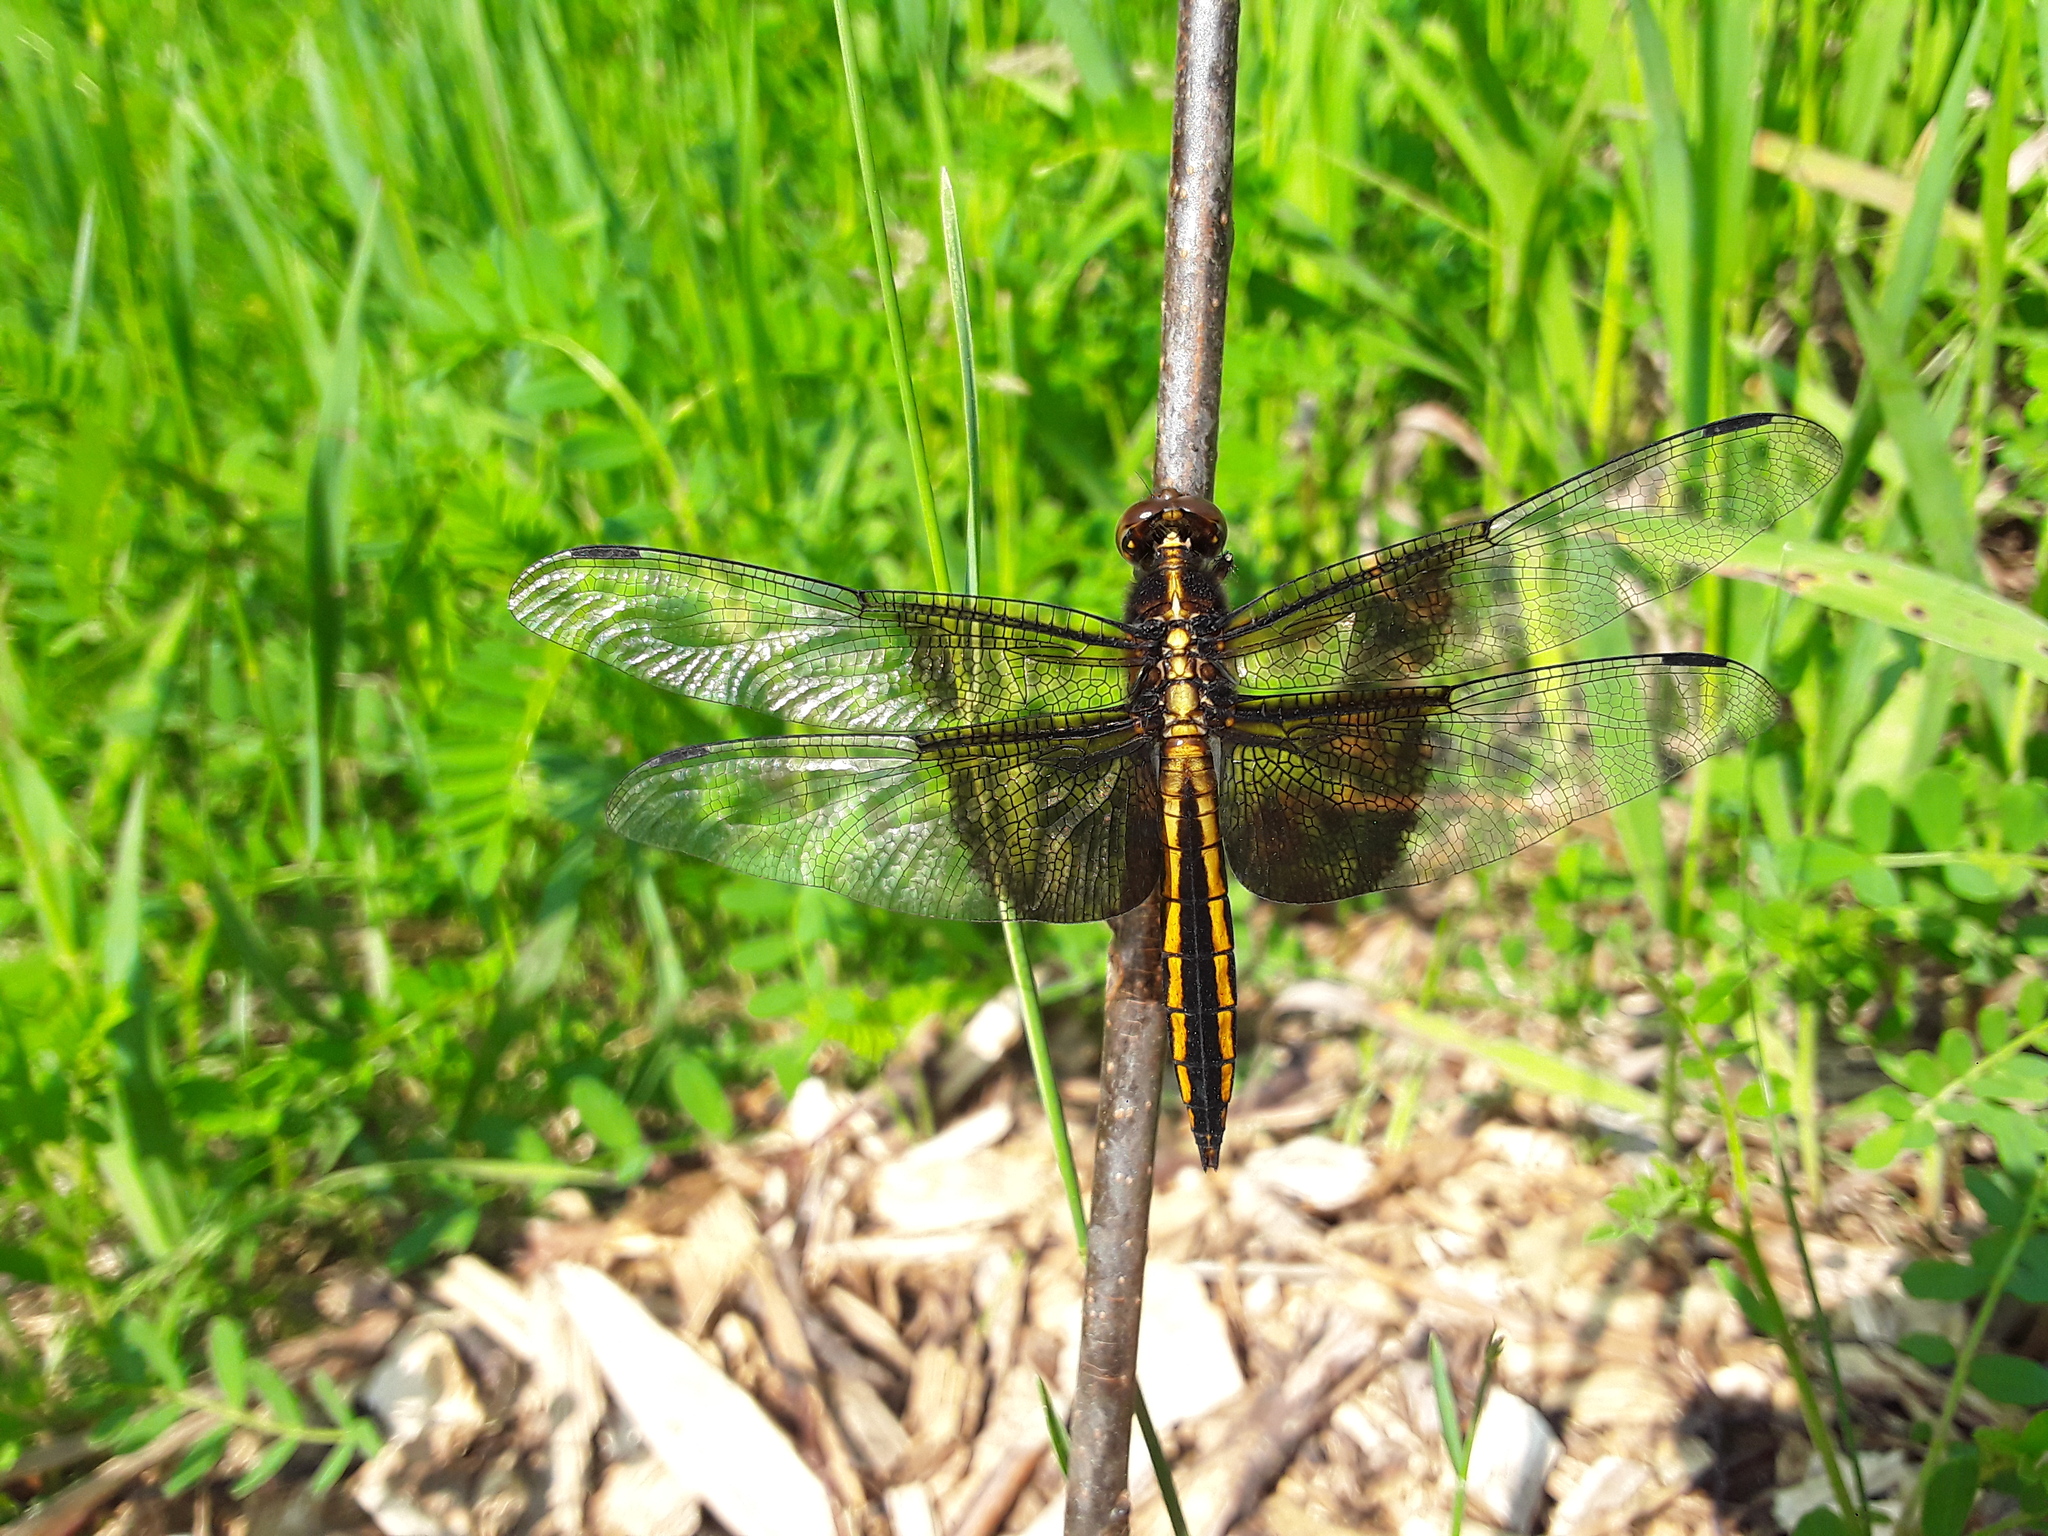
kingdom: Animalia
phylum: Arthropoda
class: Insecta
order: Odonata
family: Libellulidae
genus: Libellula
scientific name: Libellula luctuosa
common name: Widow skimmer
